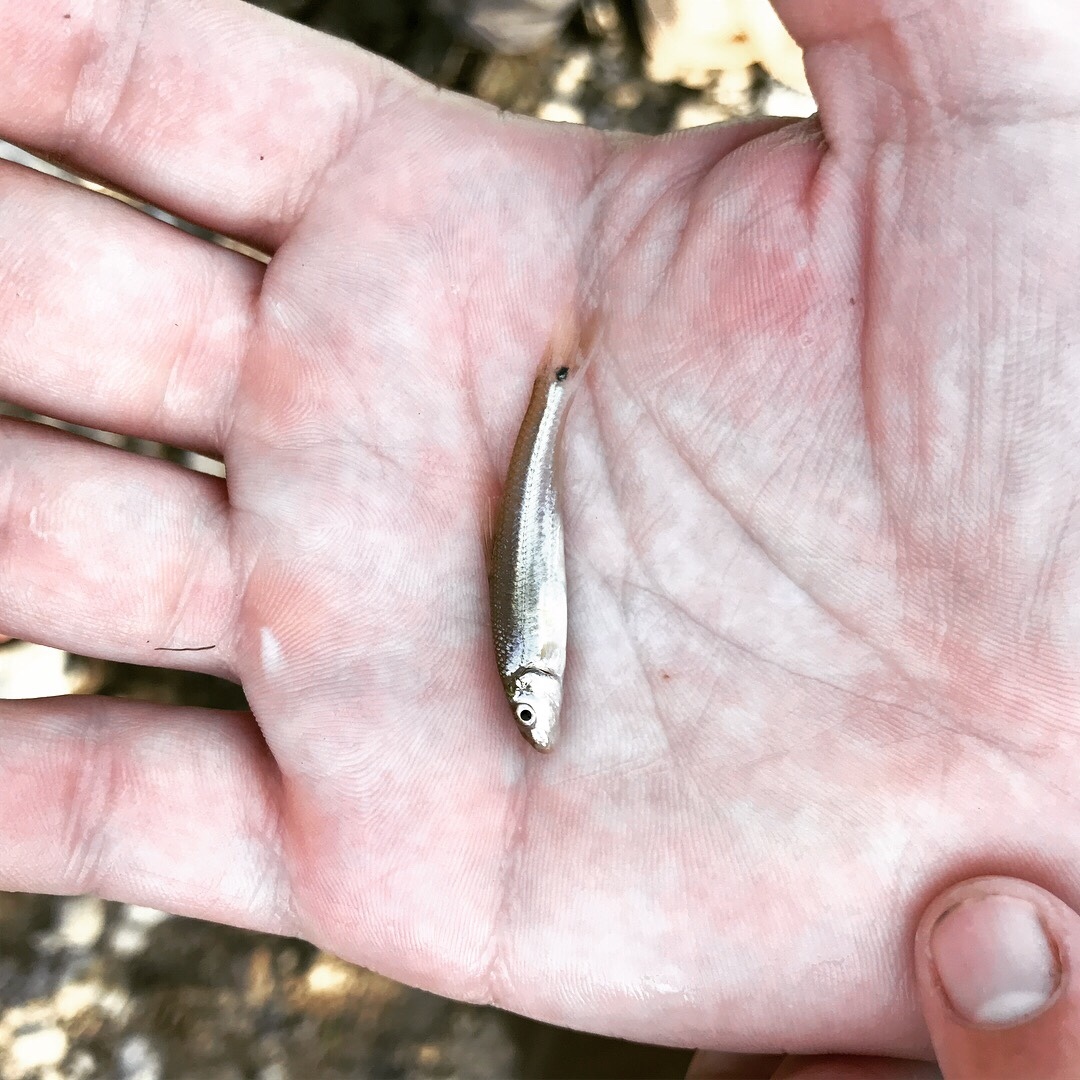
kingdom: Animalia
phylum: Chordata
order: Cypriniformes
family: Cyprinidae
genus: Phenacobius
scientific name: Phenacobius mirabilis
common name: Suckermouth minnow
